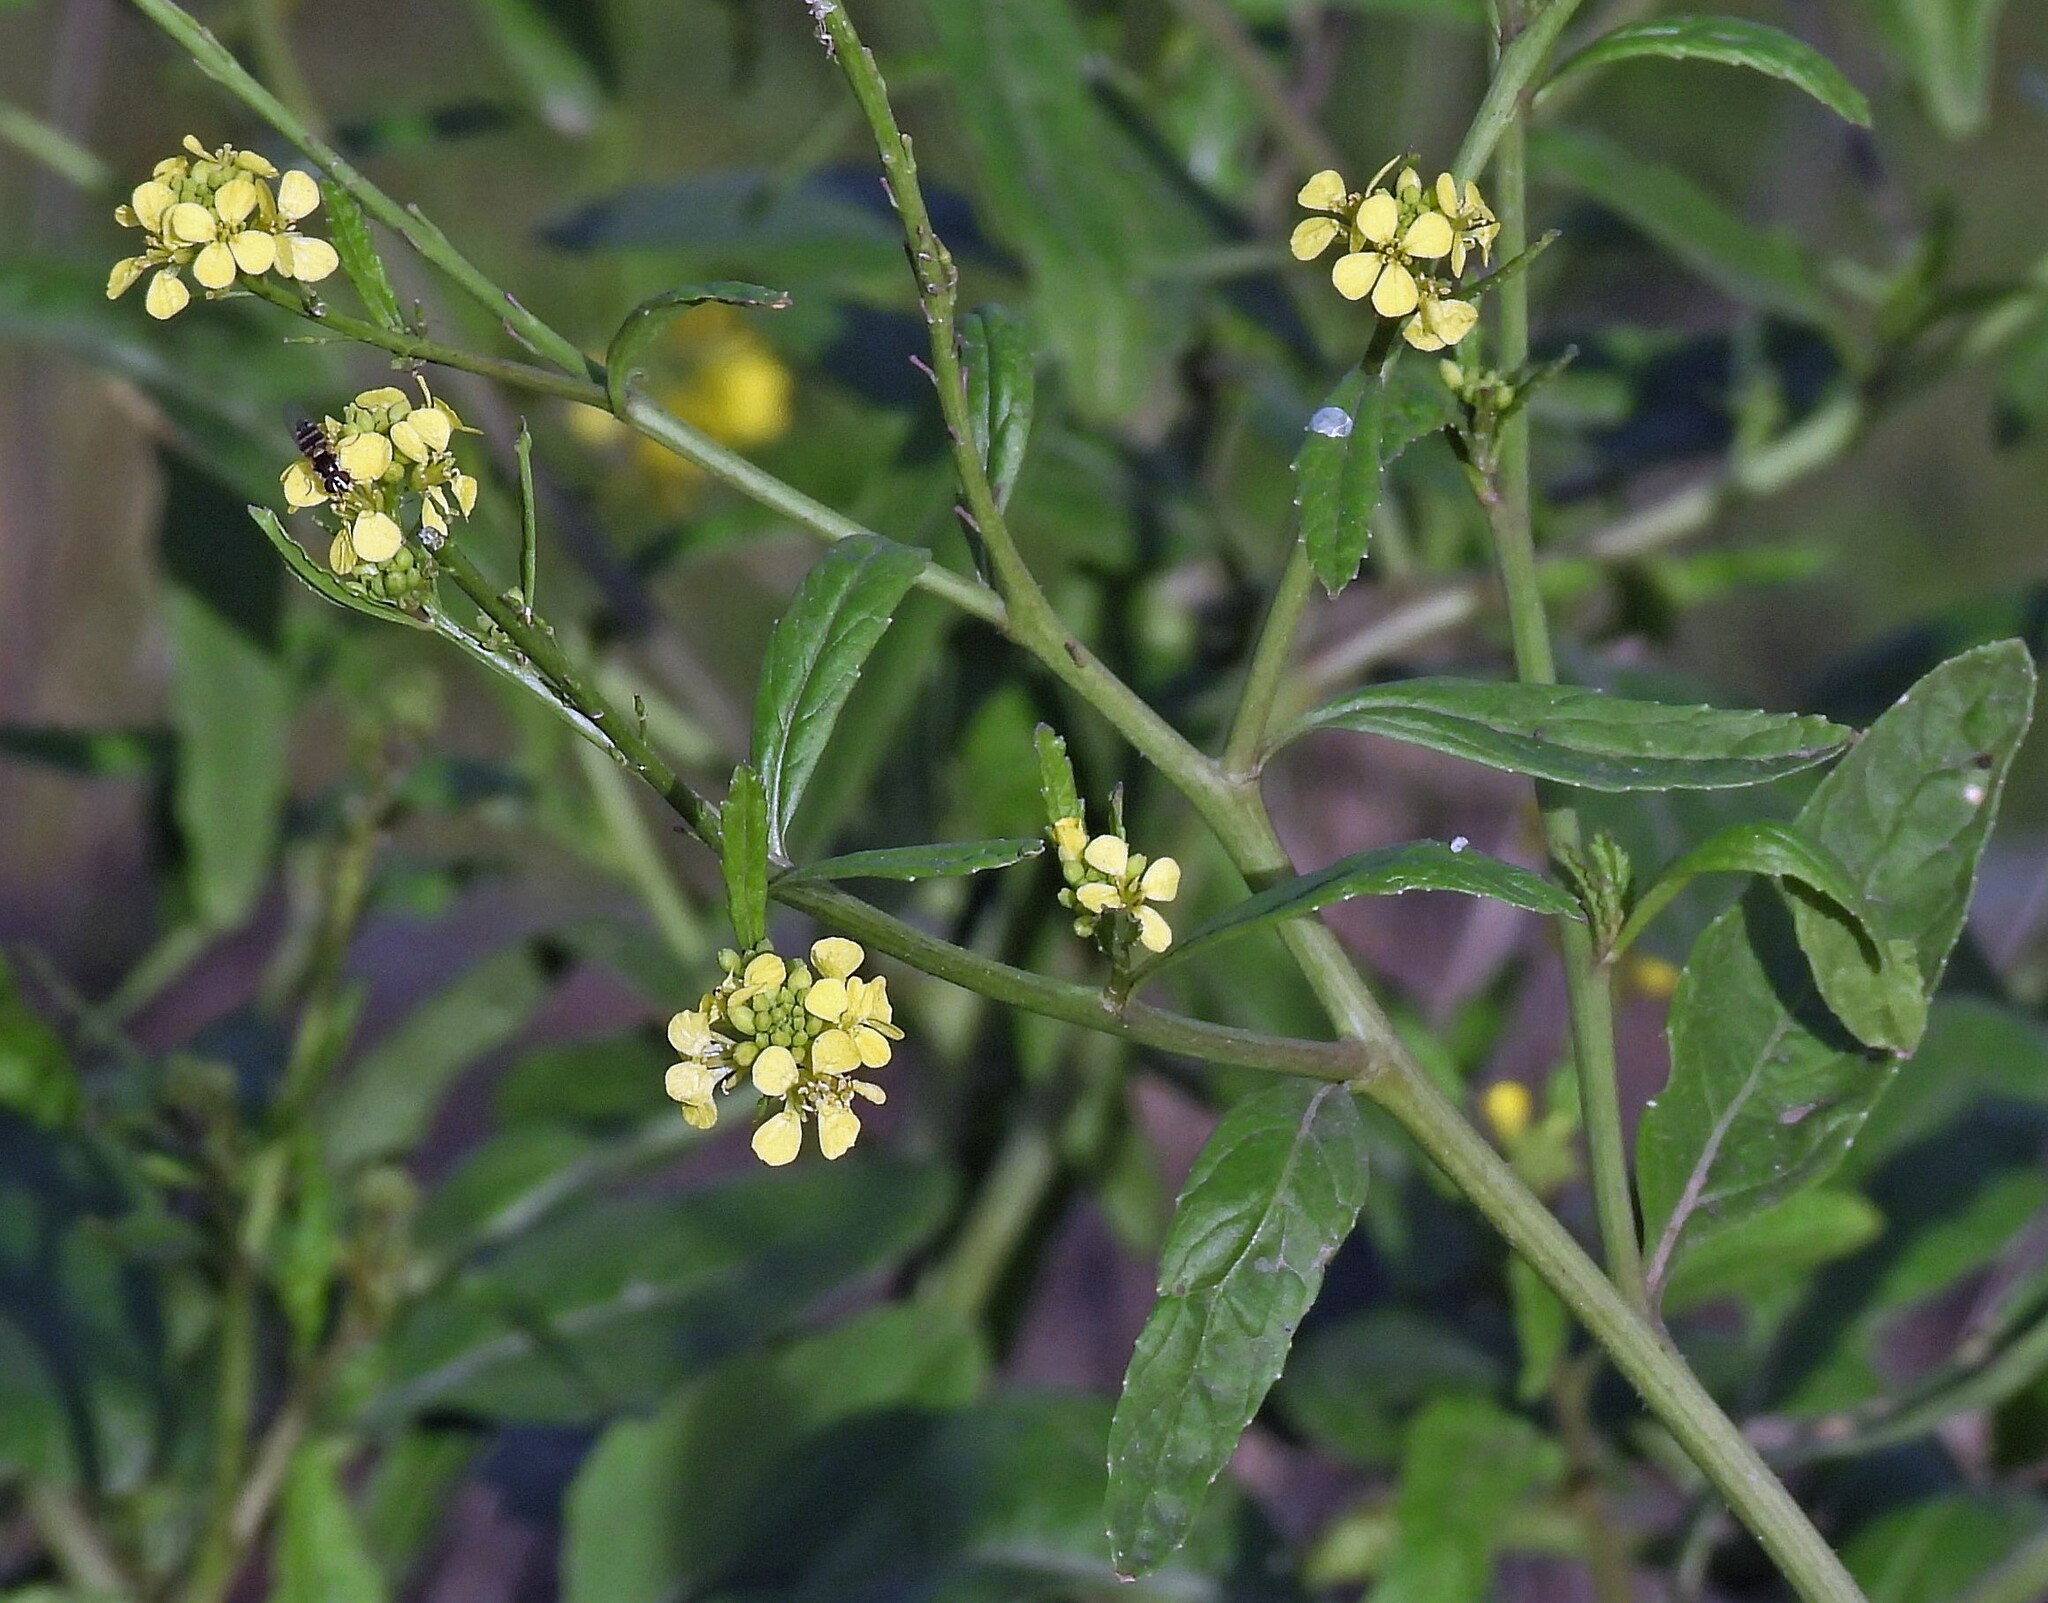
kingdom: Plantae
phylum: Tracheophyta
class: Magnoliopsida
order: Brassicales
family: Brassicaceae
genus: Rapistrum
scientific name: Rapistrum rugosum
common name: Annual bastardcabbage
